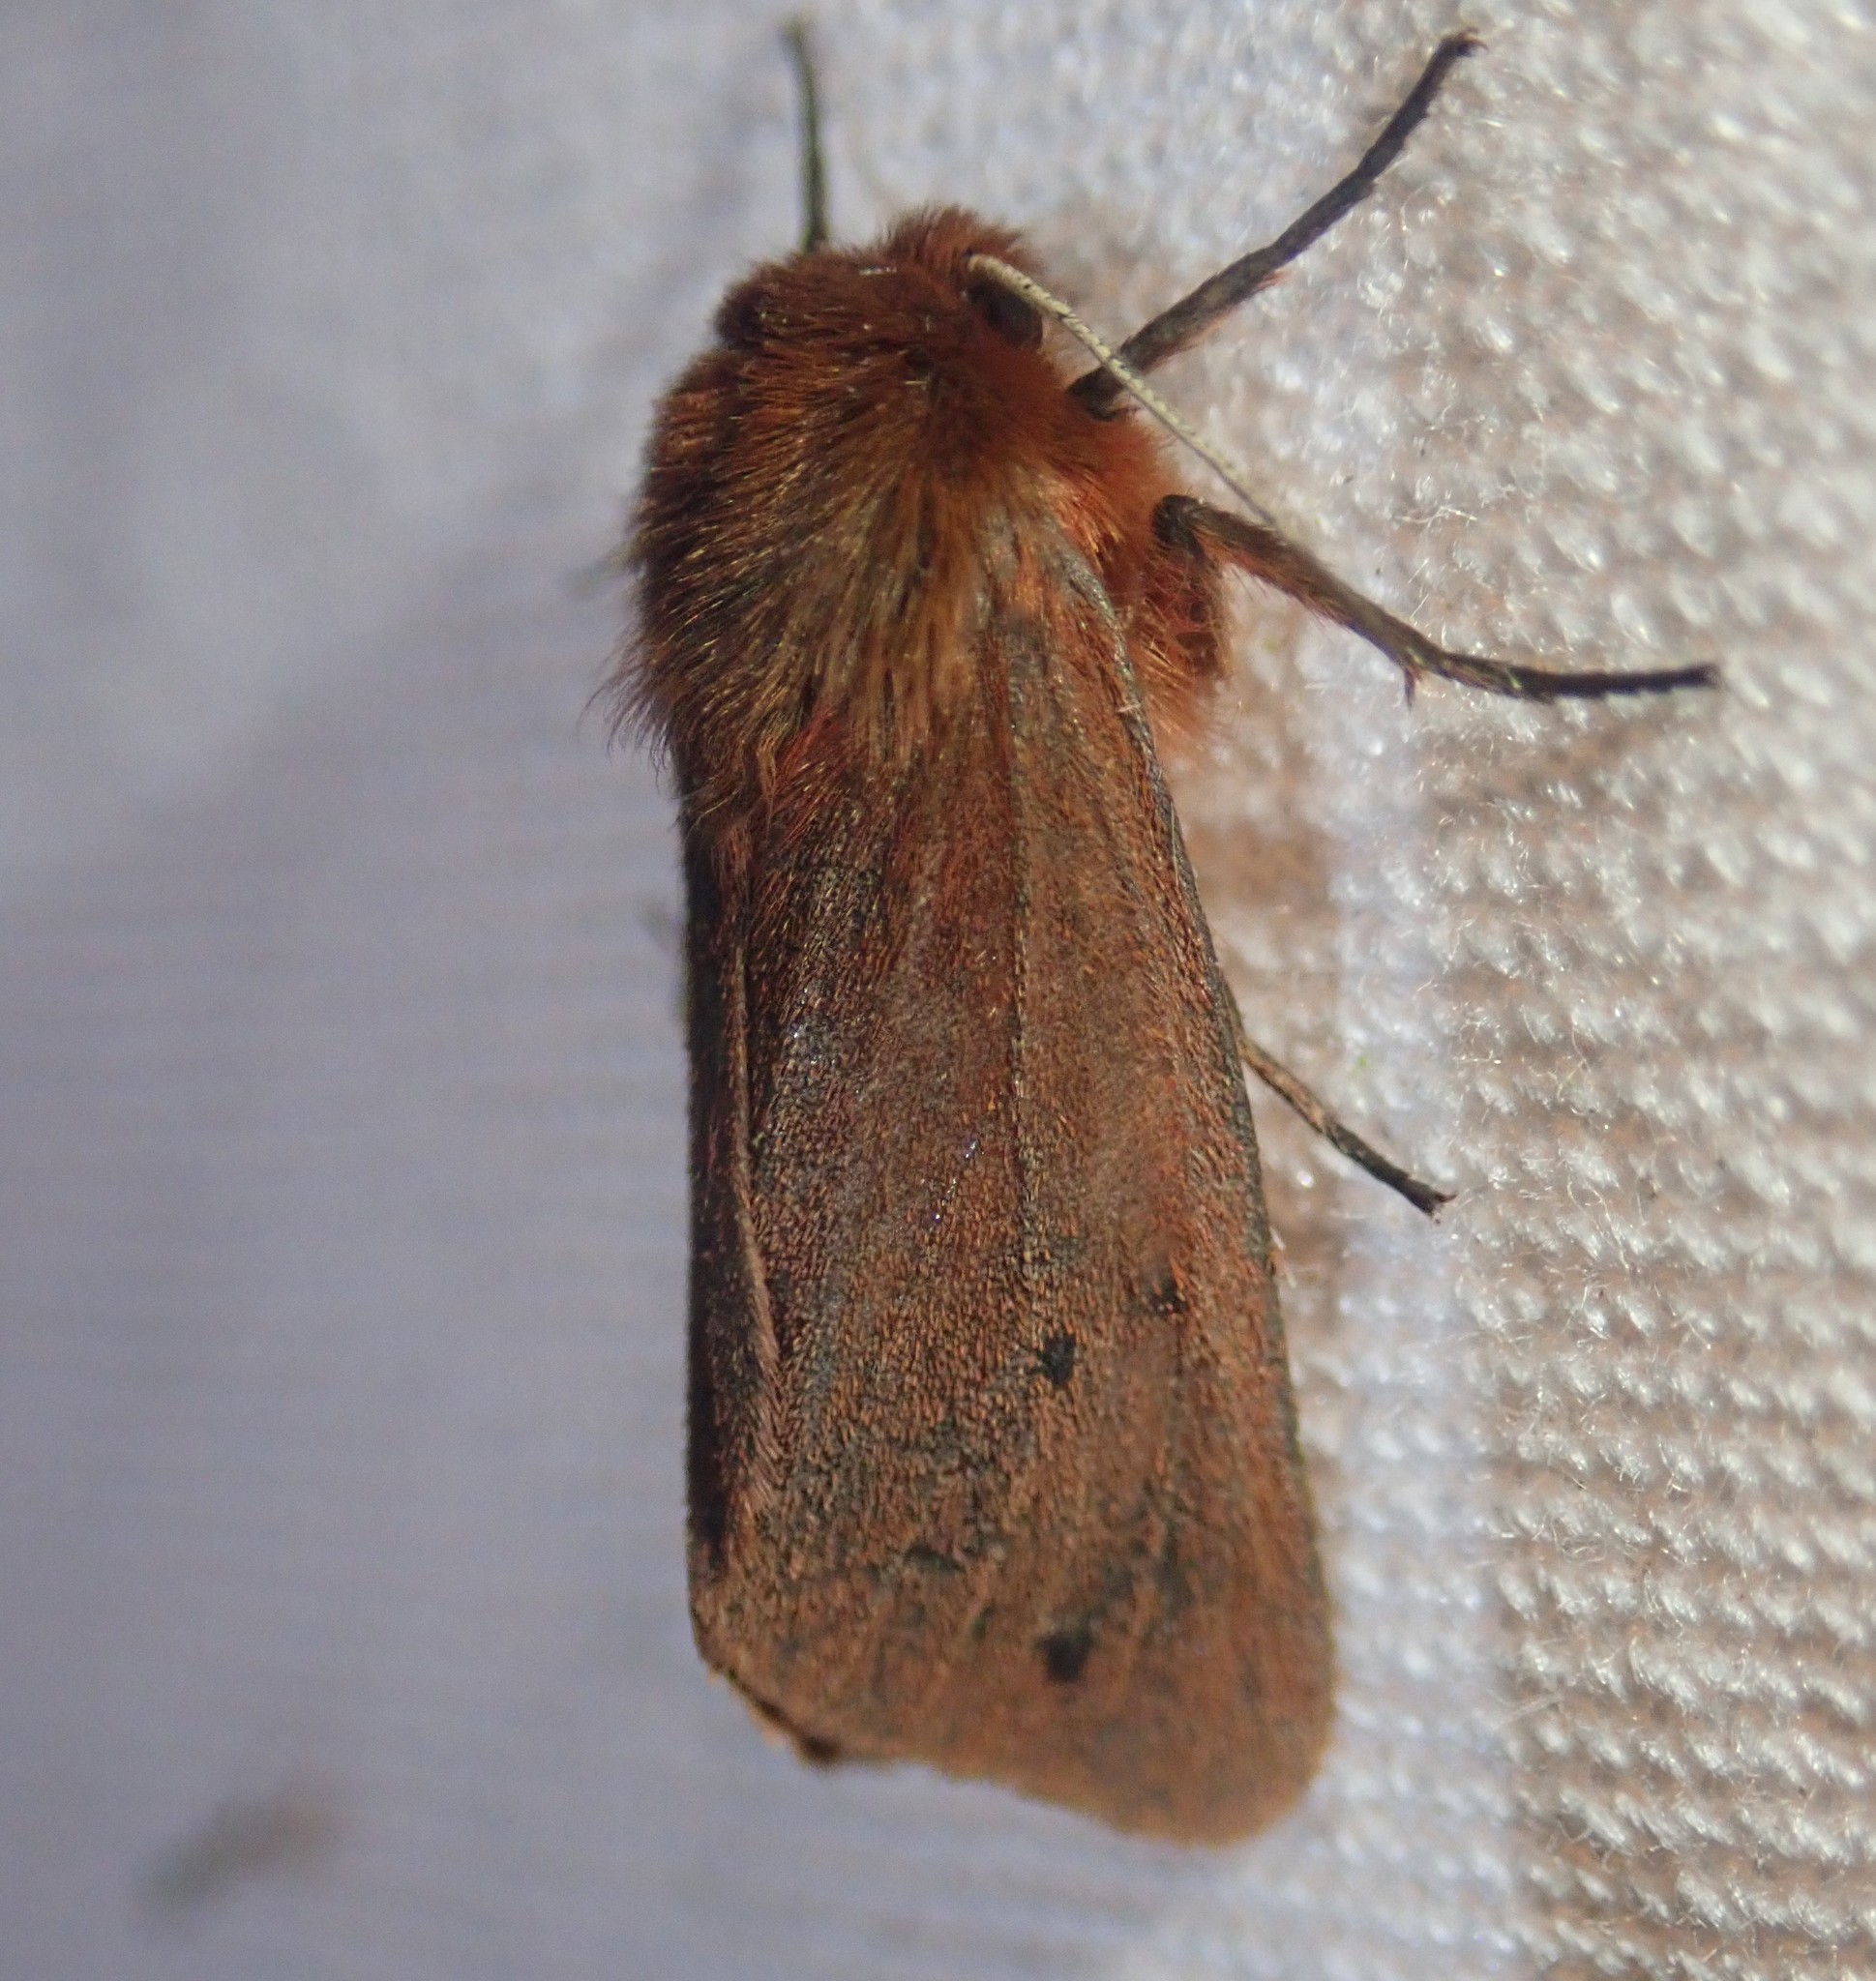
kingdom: Animalia
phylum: Arthropoda
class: Insecta
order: Lepidoptera
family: Erebidae
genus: Phragmatobia
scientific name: Phragmatobia fuliginosa
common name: Ruby tiger
